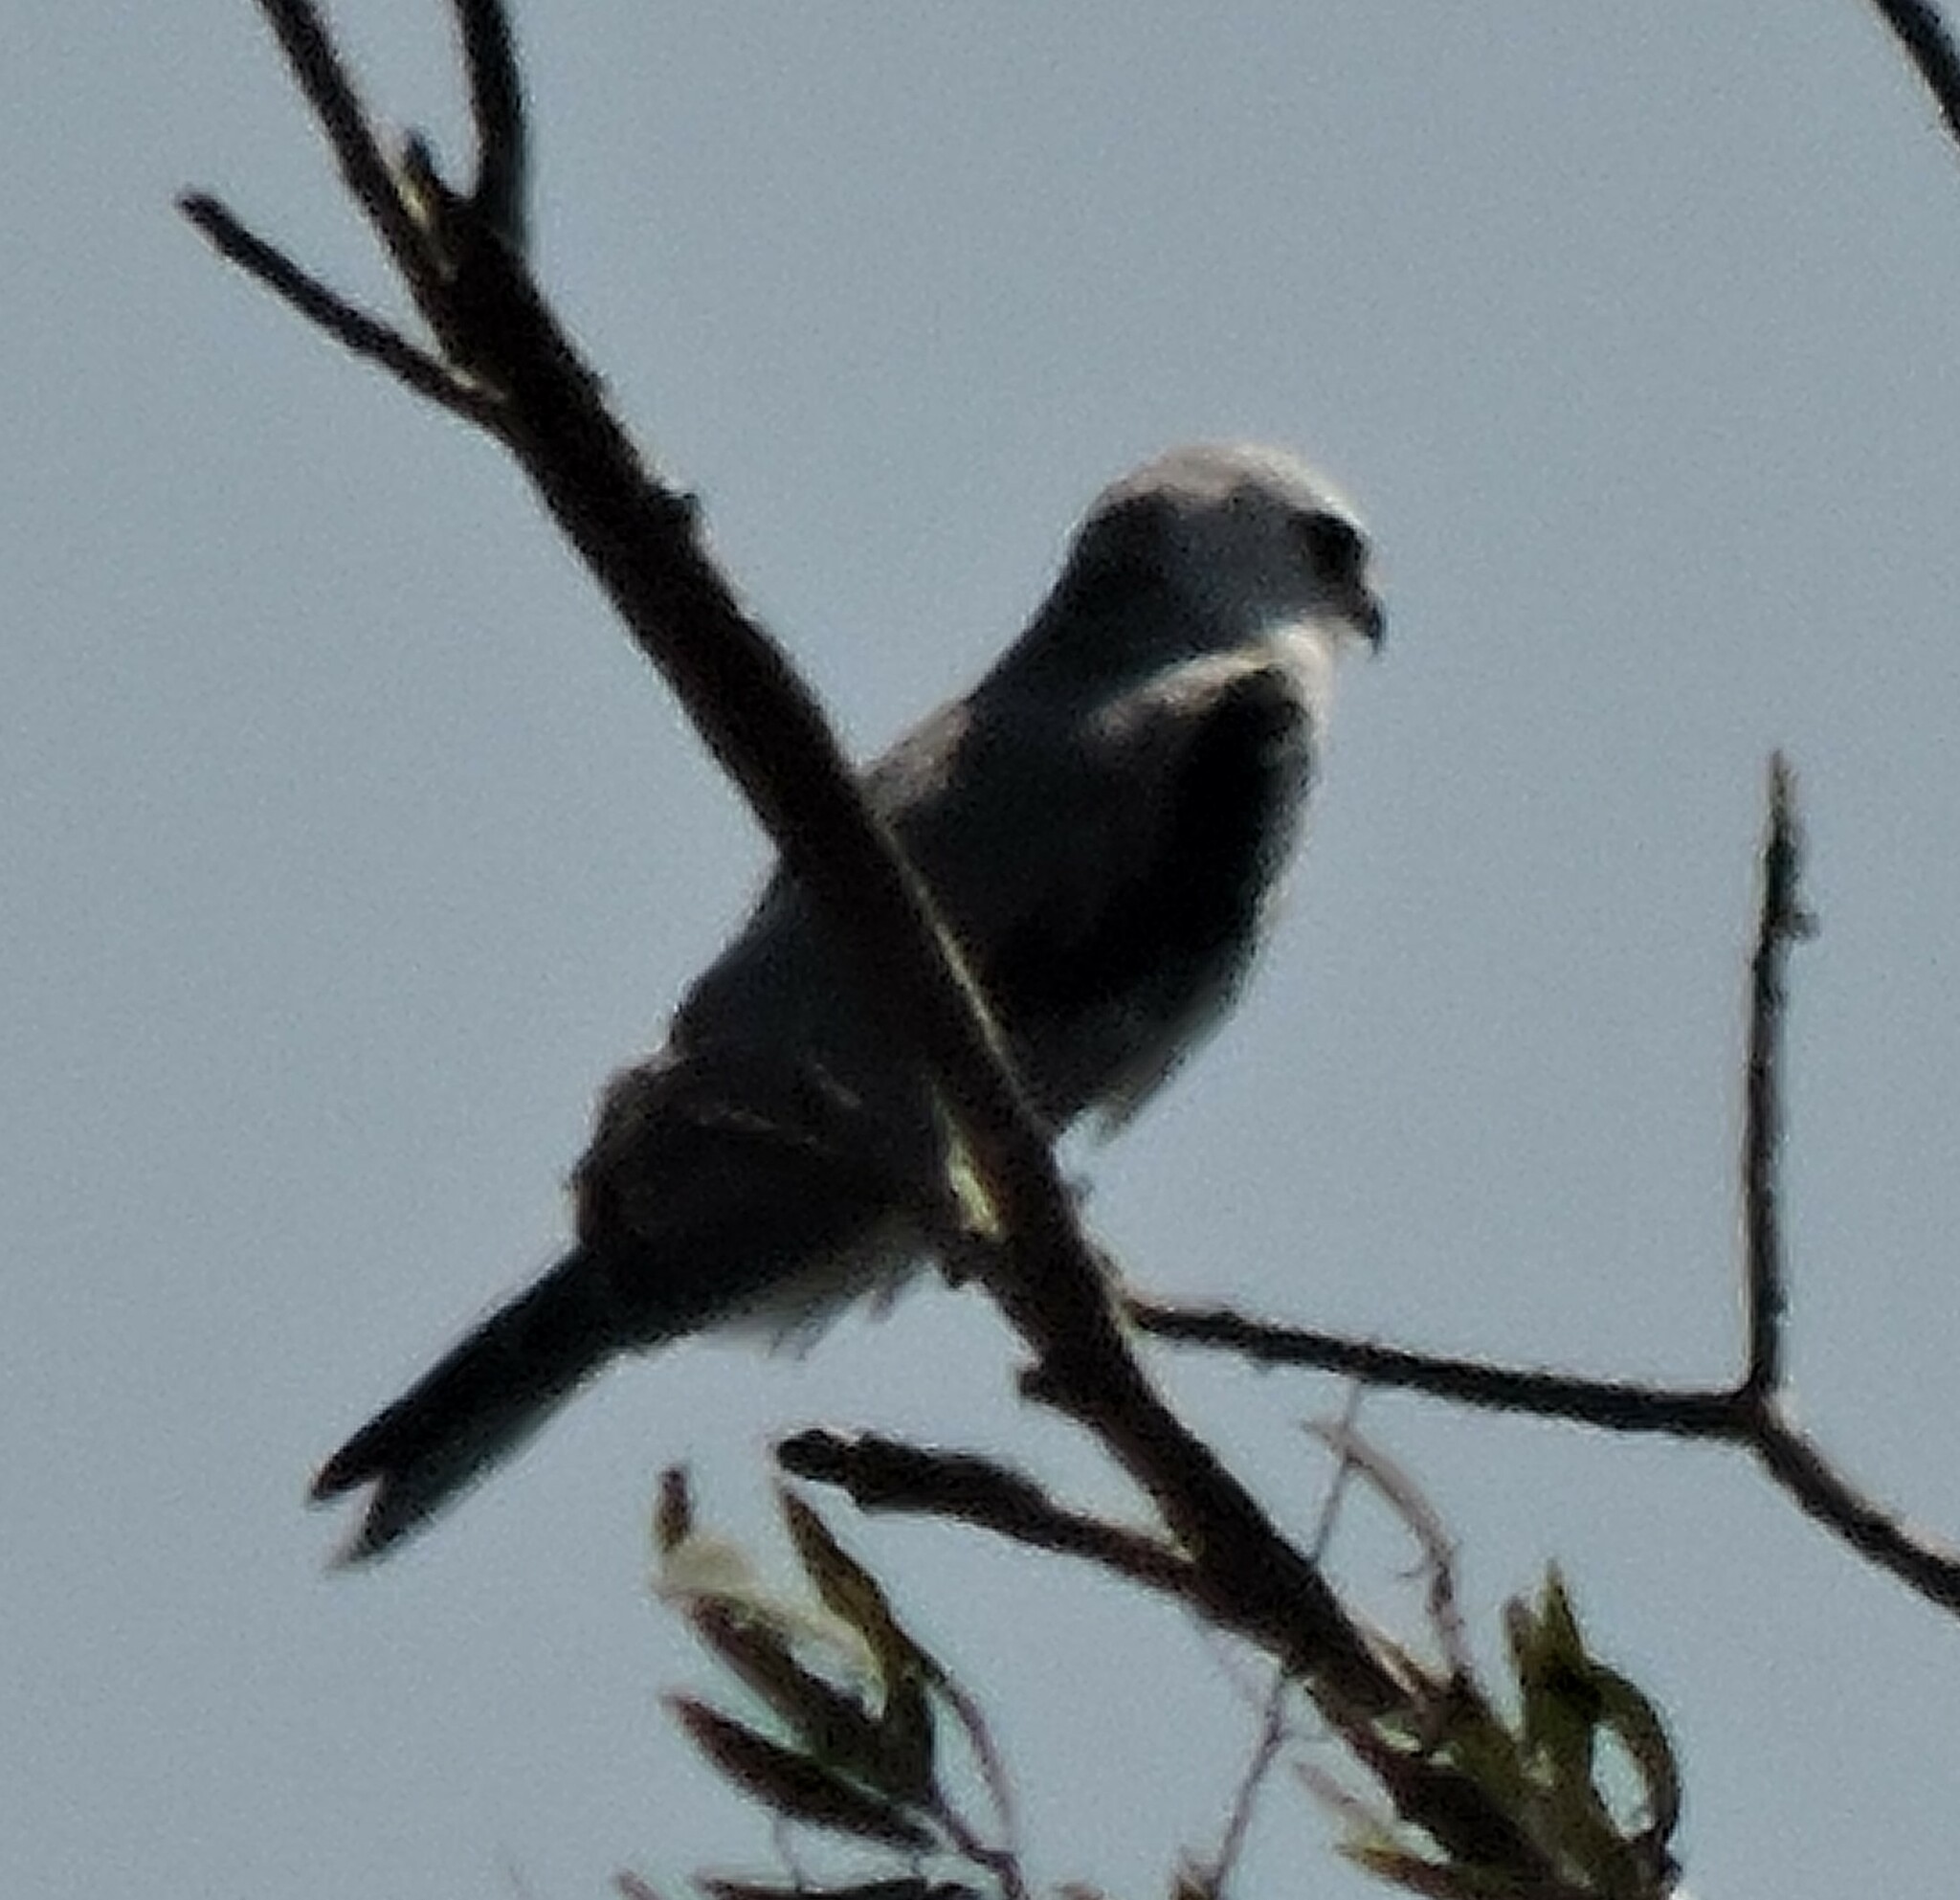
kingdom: Animalia
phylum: Chordata
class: Aves
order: Accipitriformes
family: Accipitridae
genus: Elanus
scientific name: Elanus leucurus
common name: White-tailed kite
